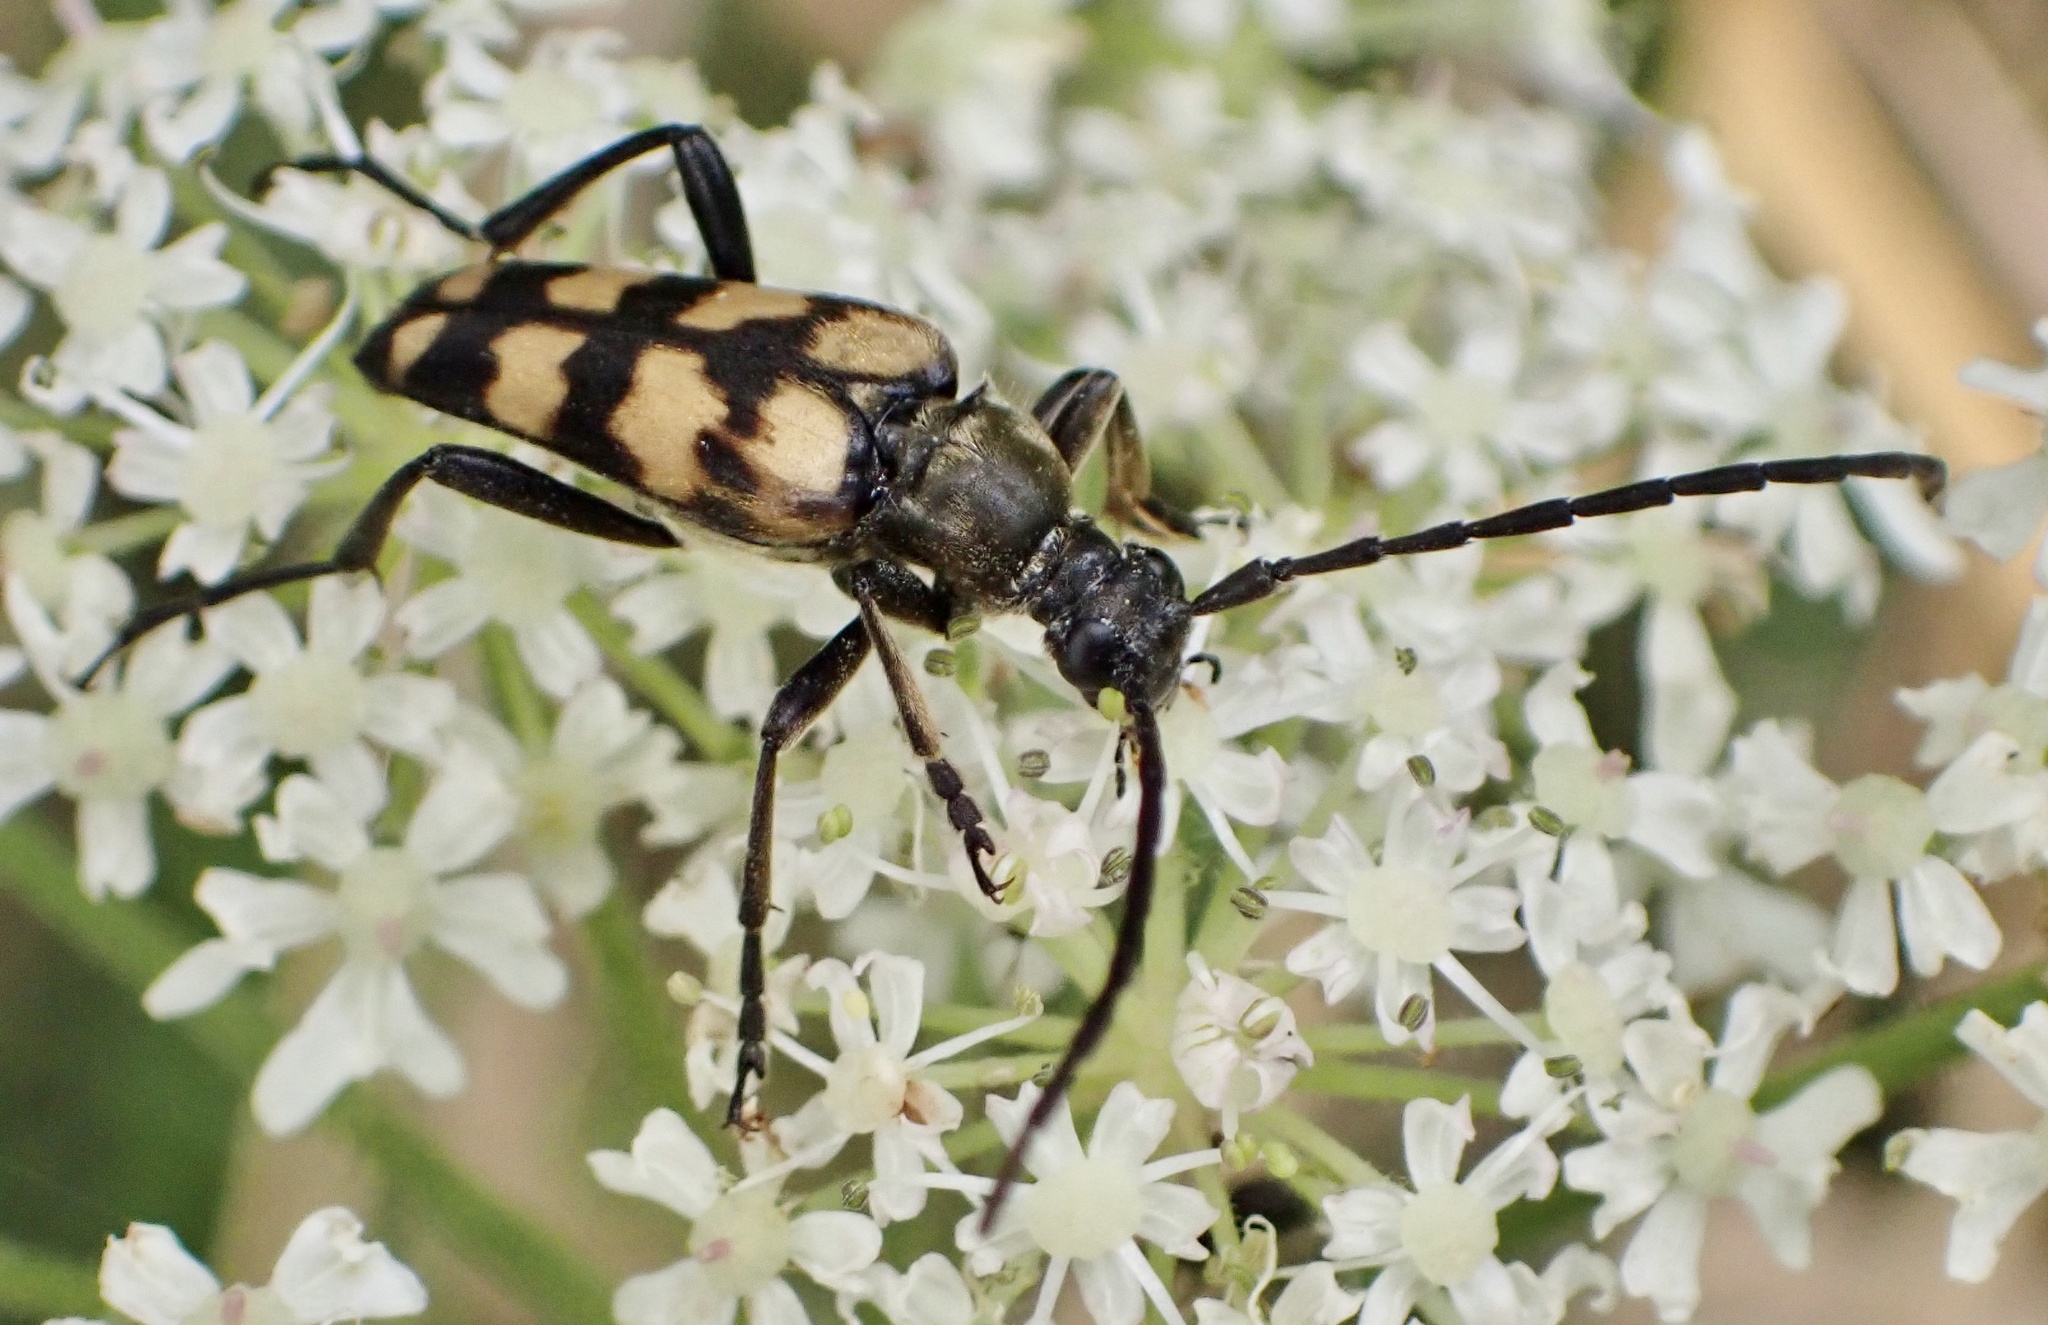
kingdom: Animalia
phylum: Arthropoda
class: Insecta
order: Coleoptera
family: Cerambycidae
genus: Leptura
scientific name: Leptura quadrifasciata
